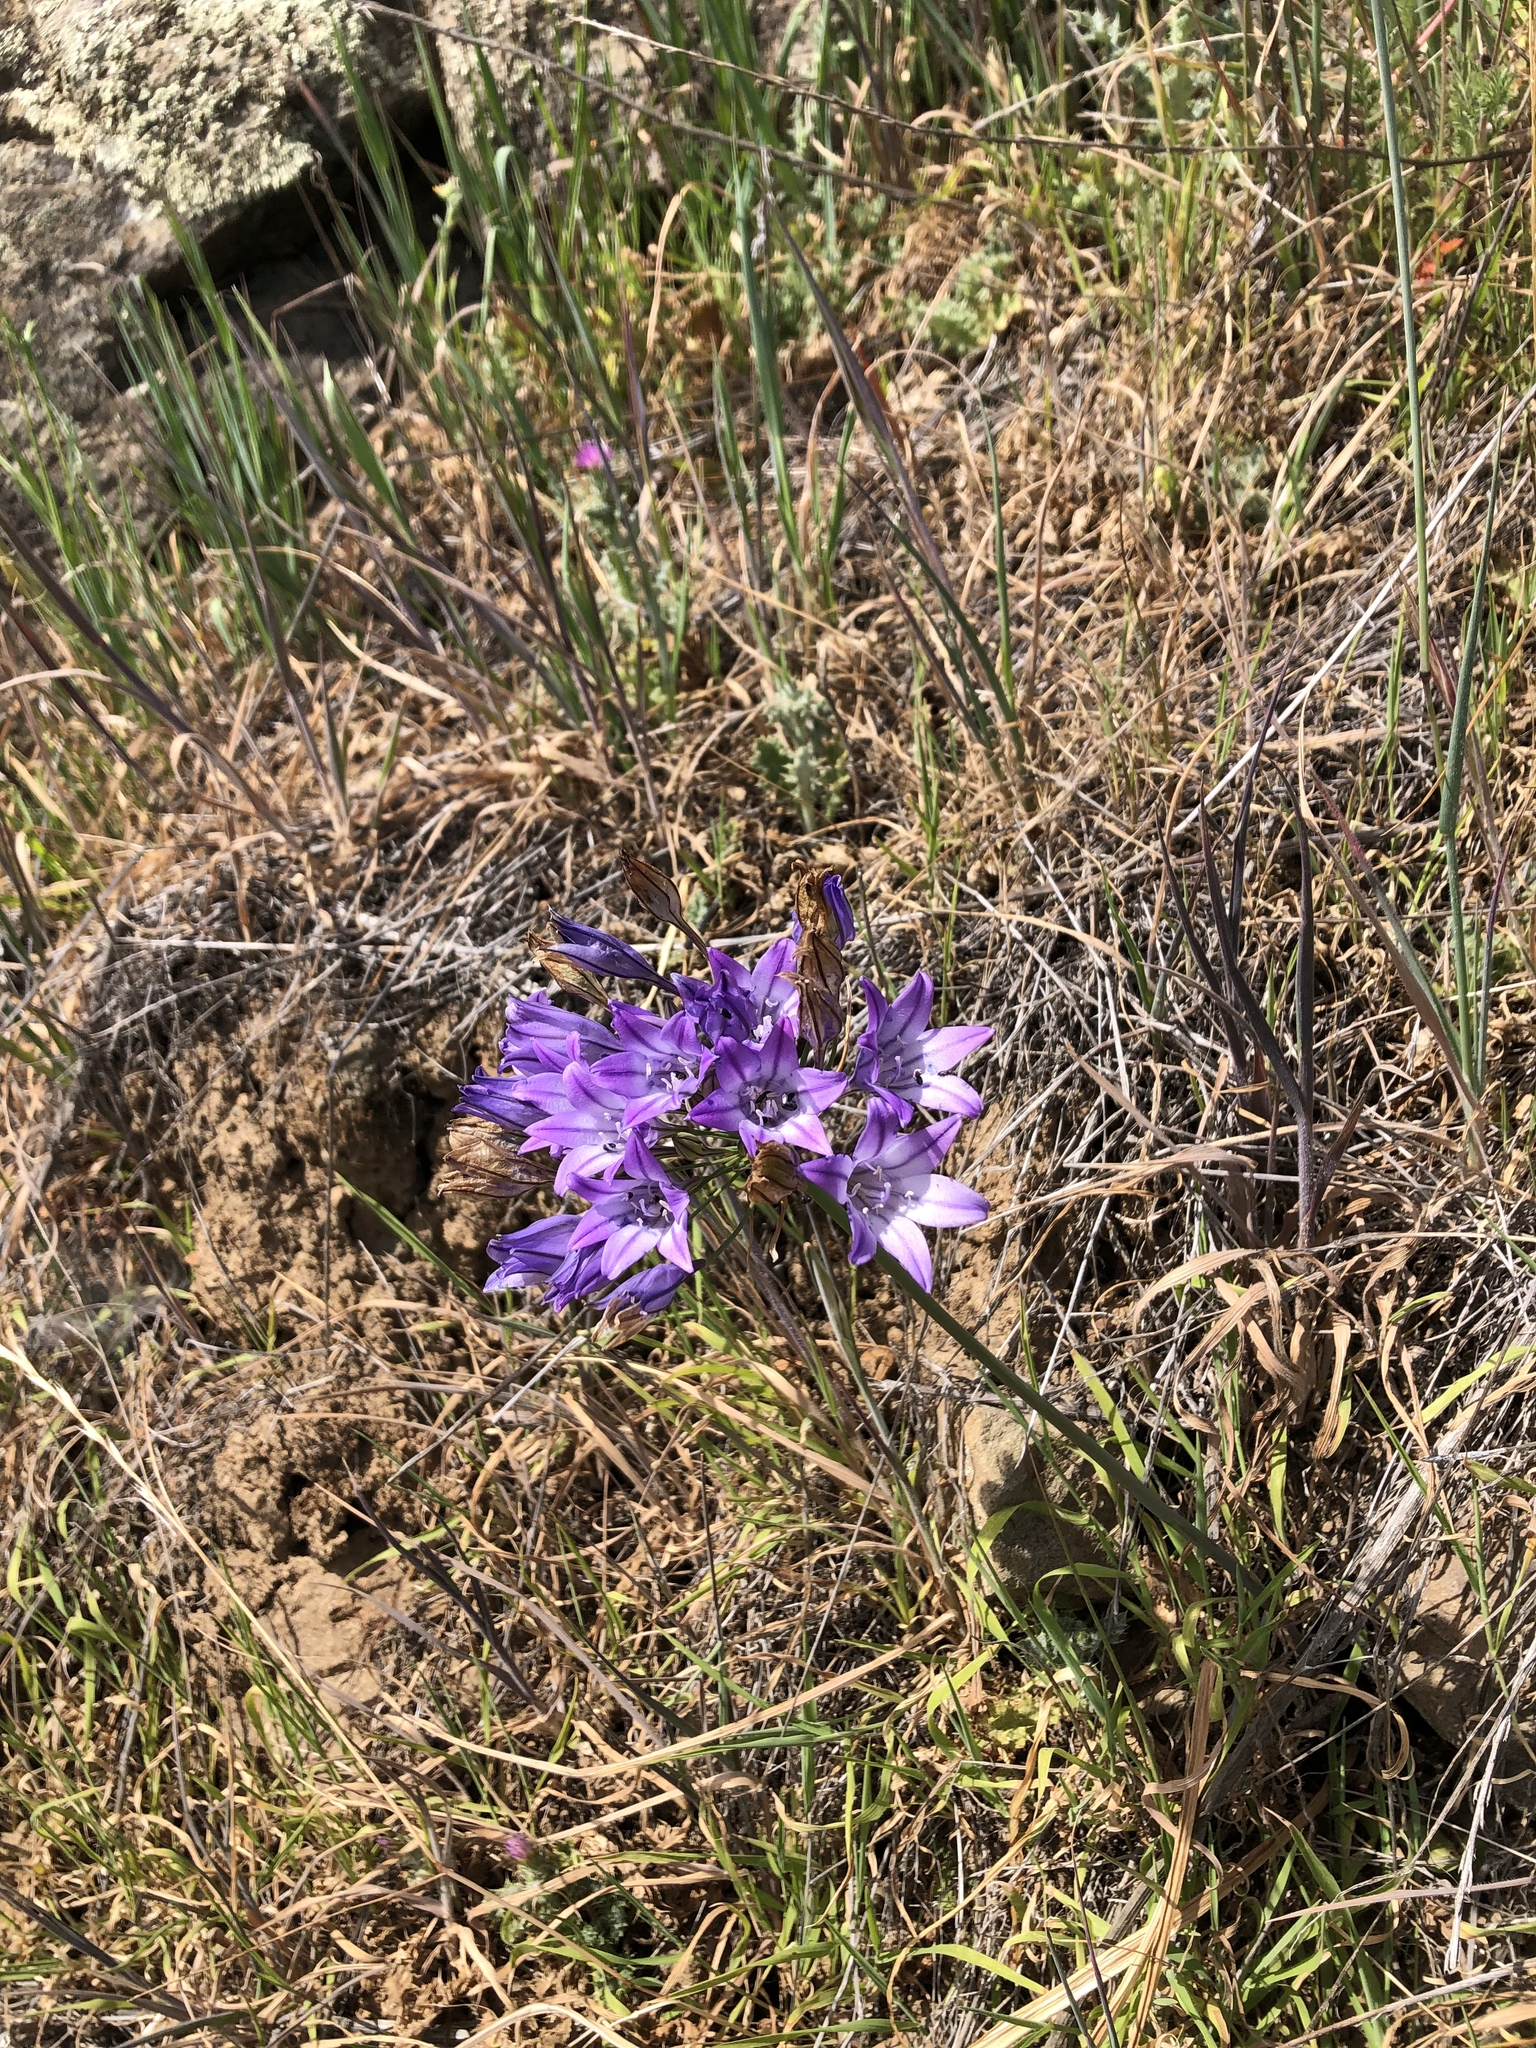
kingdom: Plantae
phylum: Tracheophyta
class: Liliopsida
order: Asparagales
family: Asparagaceae
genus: Triteleia
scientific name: Triteleia laxa
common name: Triplet-lily
